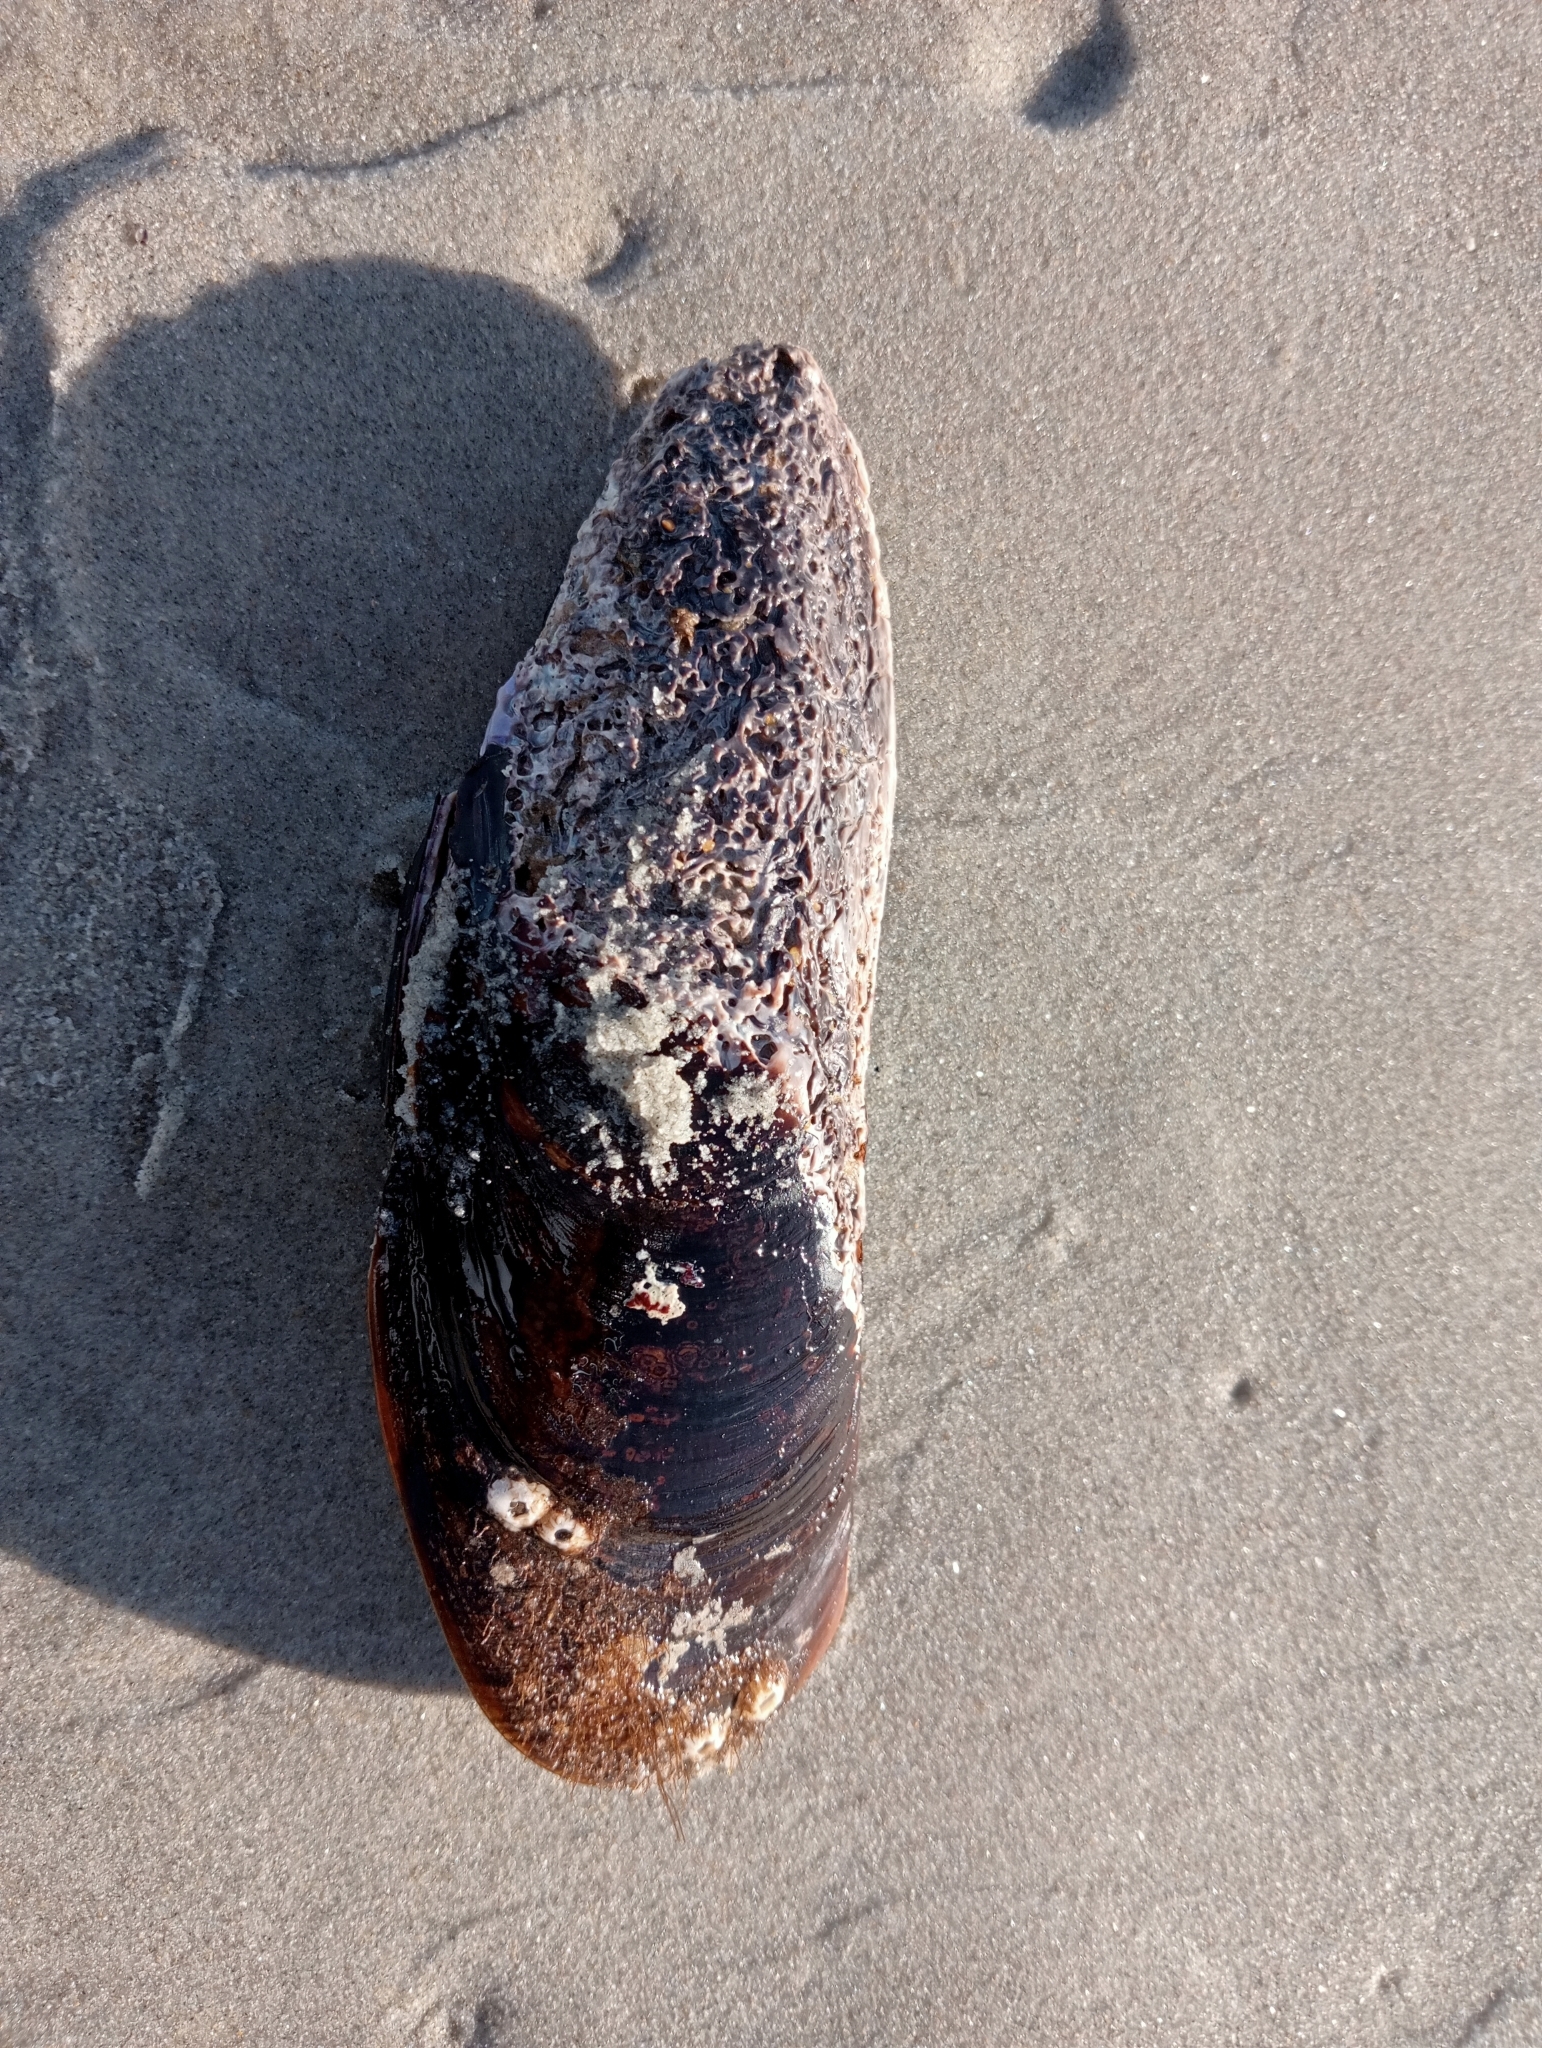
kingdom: Animalia
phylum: Mollusca
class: Bivalvia
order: Mytilida
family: Mytilidae
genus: Perna
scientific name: Perna canaliculus
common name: New zealand greenshelltm
